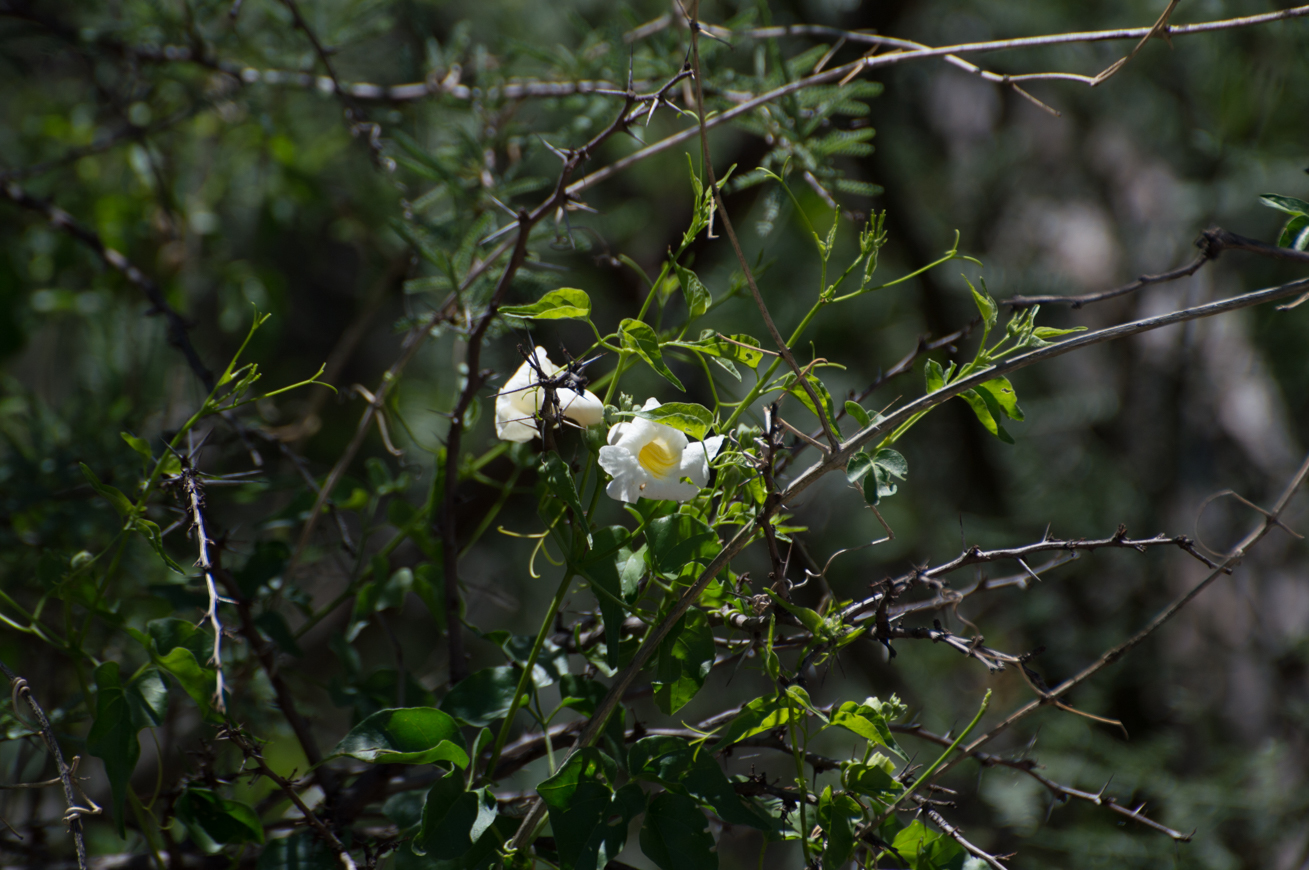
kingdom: Plantae
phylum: Tracheophyta
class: Magnoliopsida
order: Lamiales
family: Bignoniaceae
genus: Amphilophium
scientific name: Amphilophium carolinae
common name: Monkey's-comb
